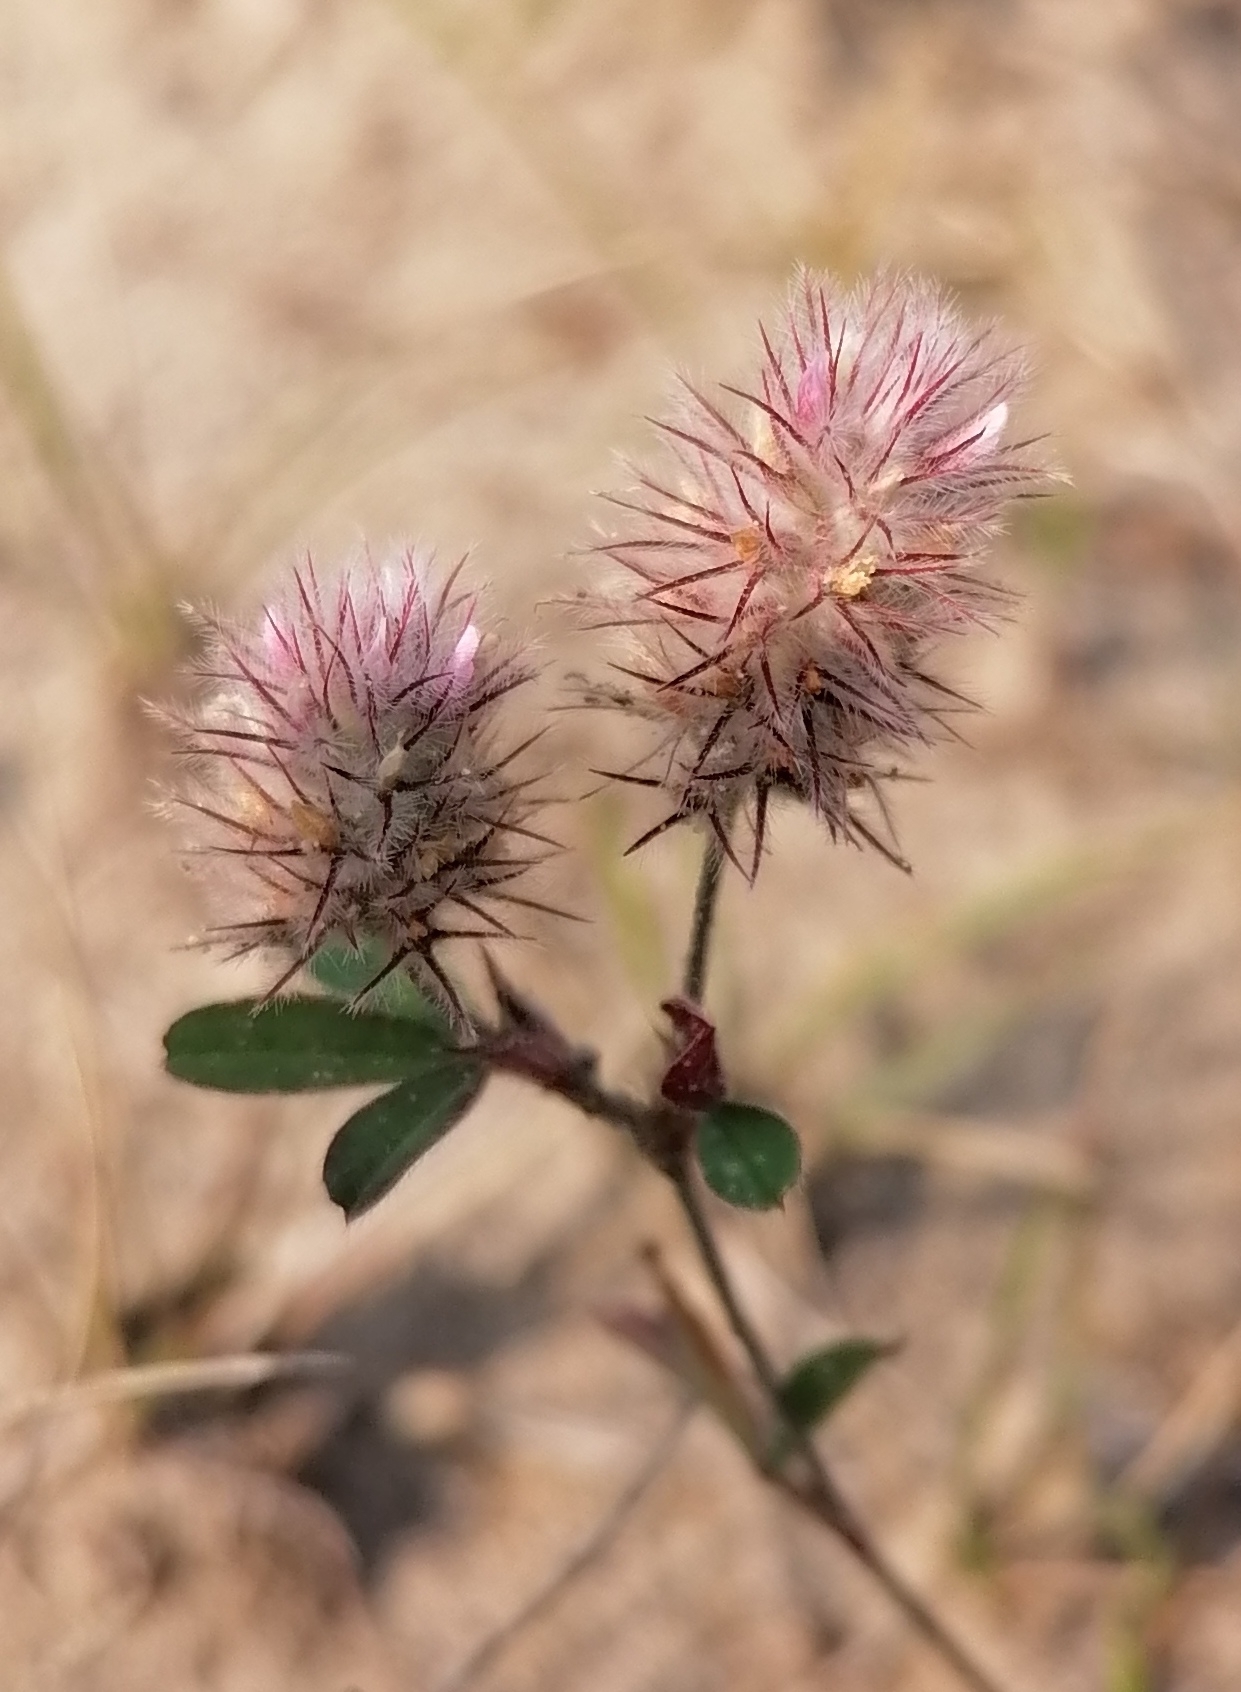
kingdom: Plantae
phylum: Tracheophyta
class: Magnoliopsida
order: Fabales
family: Fabaceae
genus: Trifolium
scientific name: Trifolium arvense
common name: Hare's-foot clover
